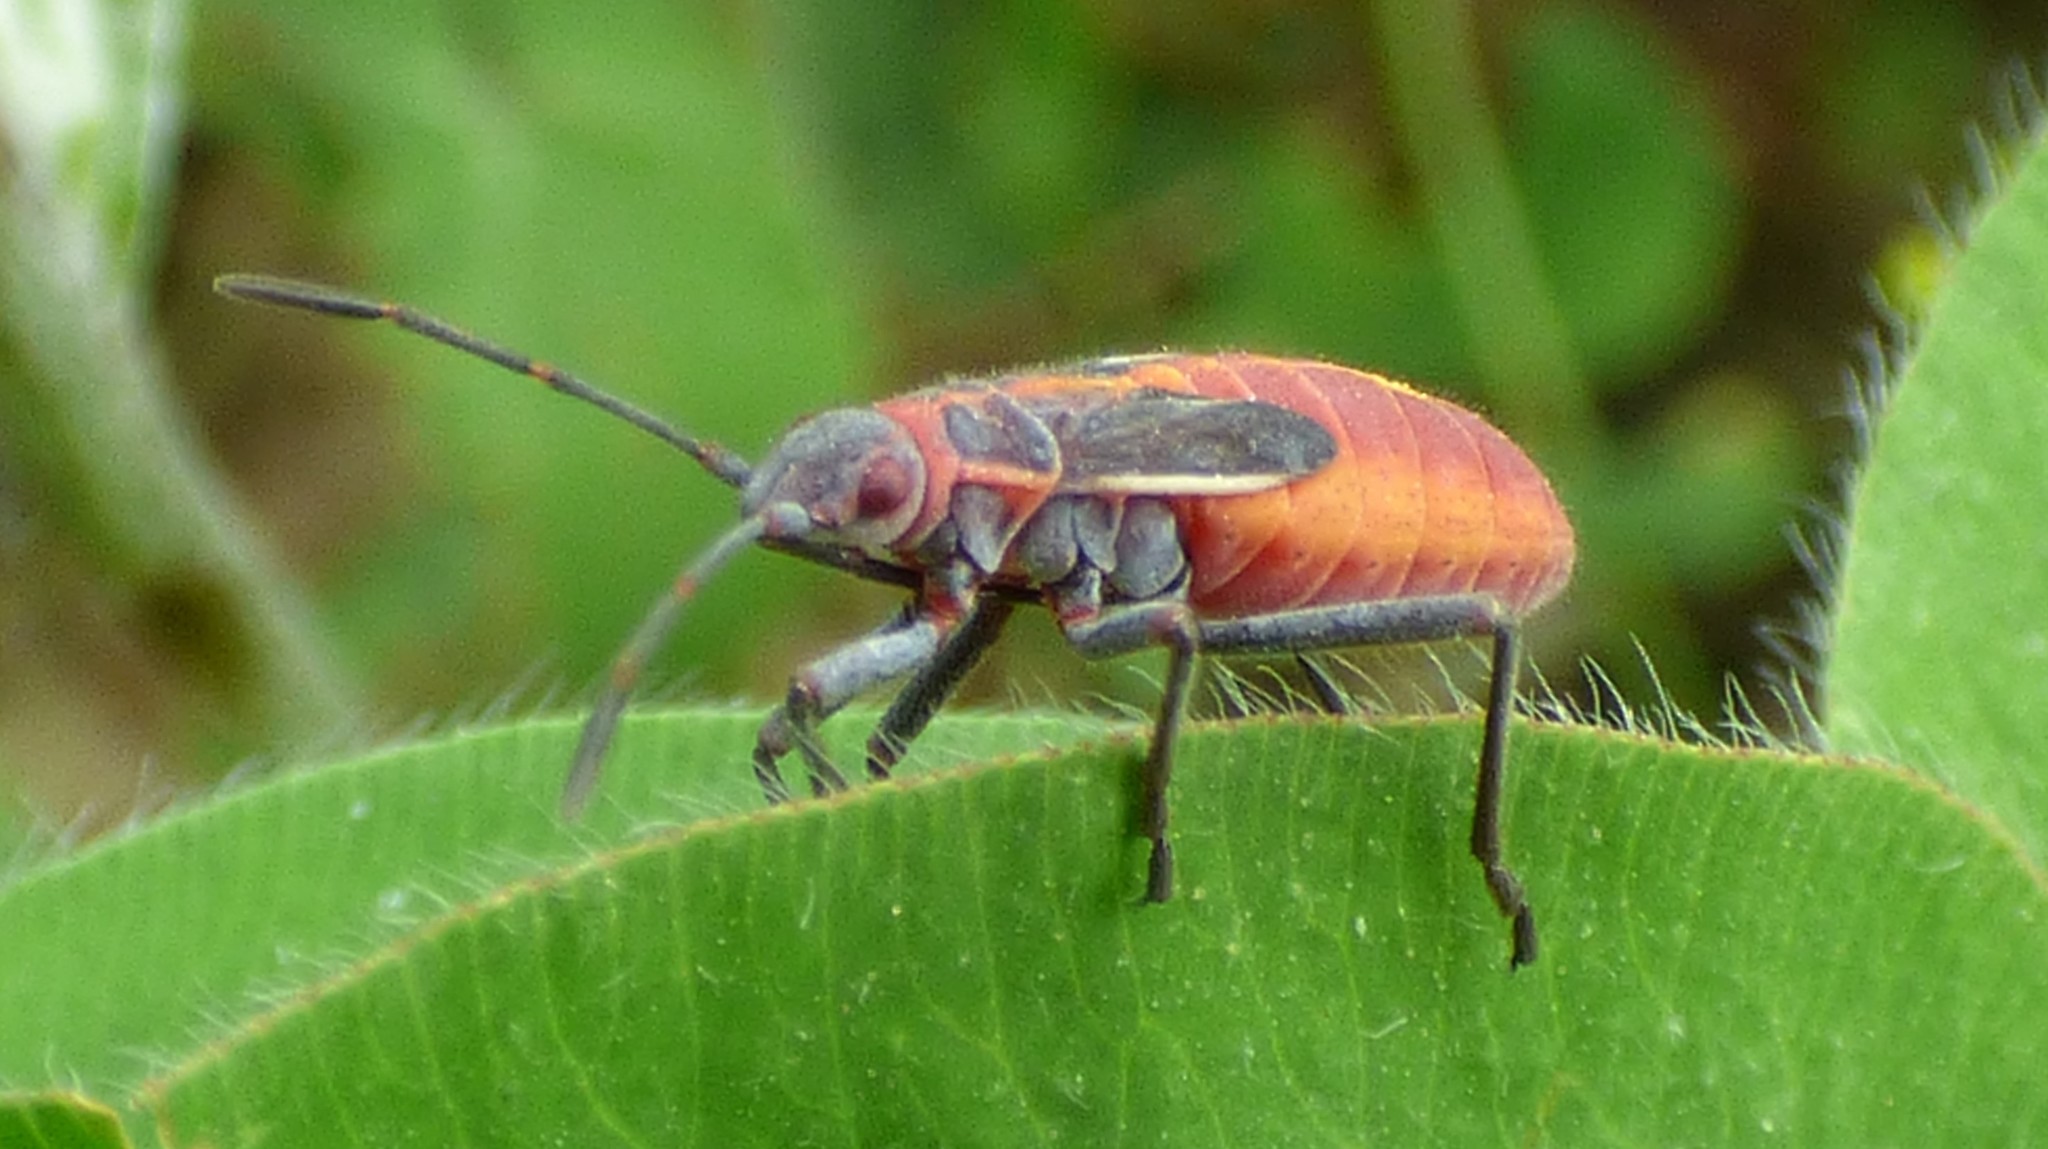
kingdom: Animalia
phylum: Arthropoda
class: Insecta
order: Hemiptera
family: Rhopalidae
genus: Boisea
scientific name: Boisea trivittata
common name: Boxelder bug
